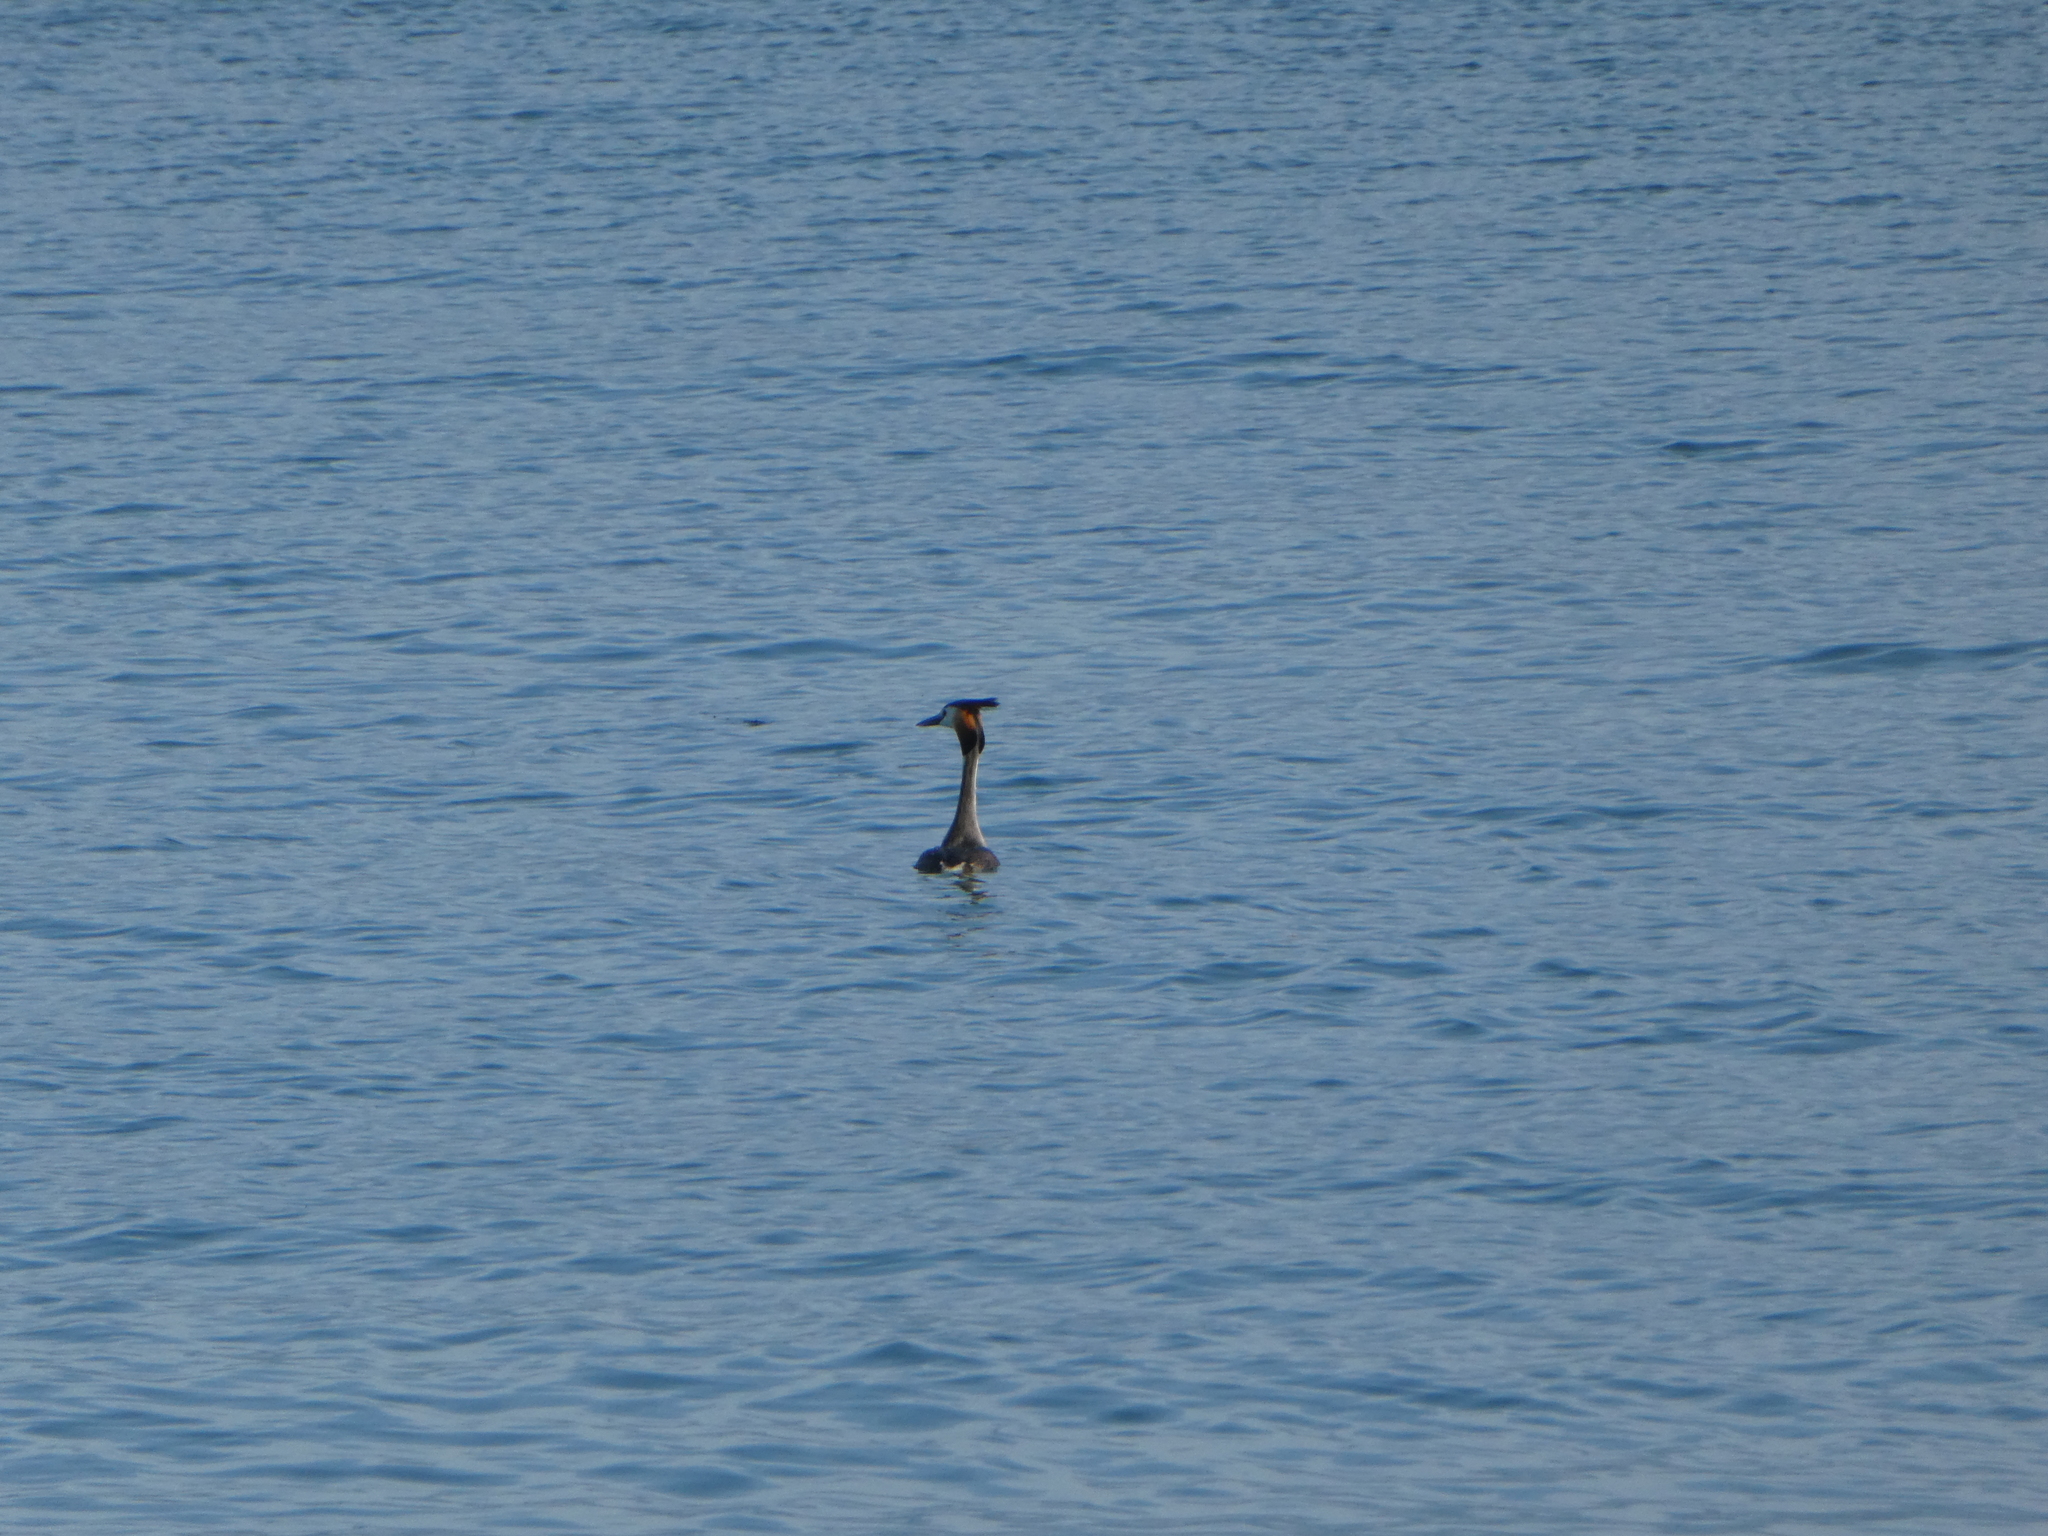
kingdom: Animalia
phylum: Chordata
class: Aves
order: Podicipediformes
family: Podicipedidae
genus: Podiceps
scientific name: Podiceps cristatus
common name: Great crested grebe
